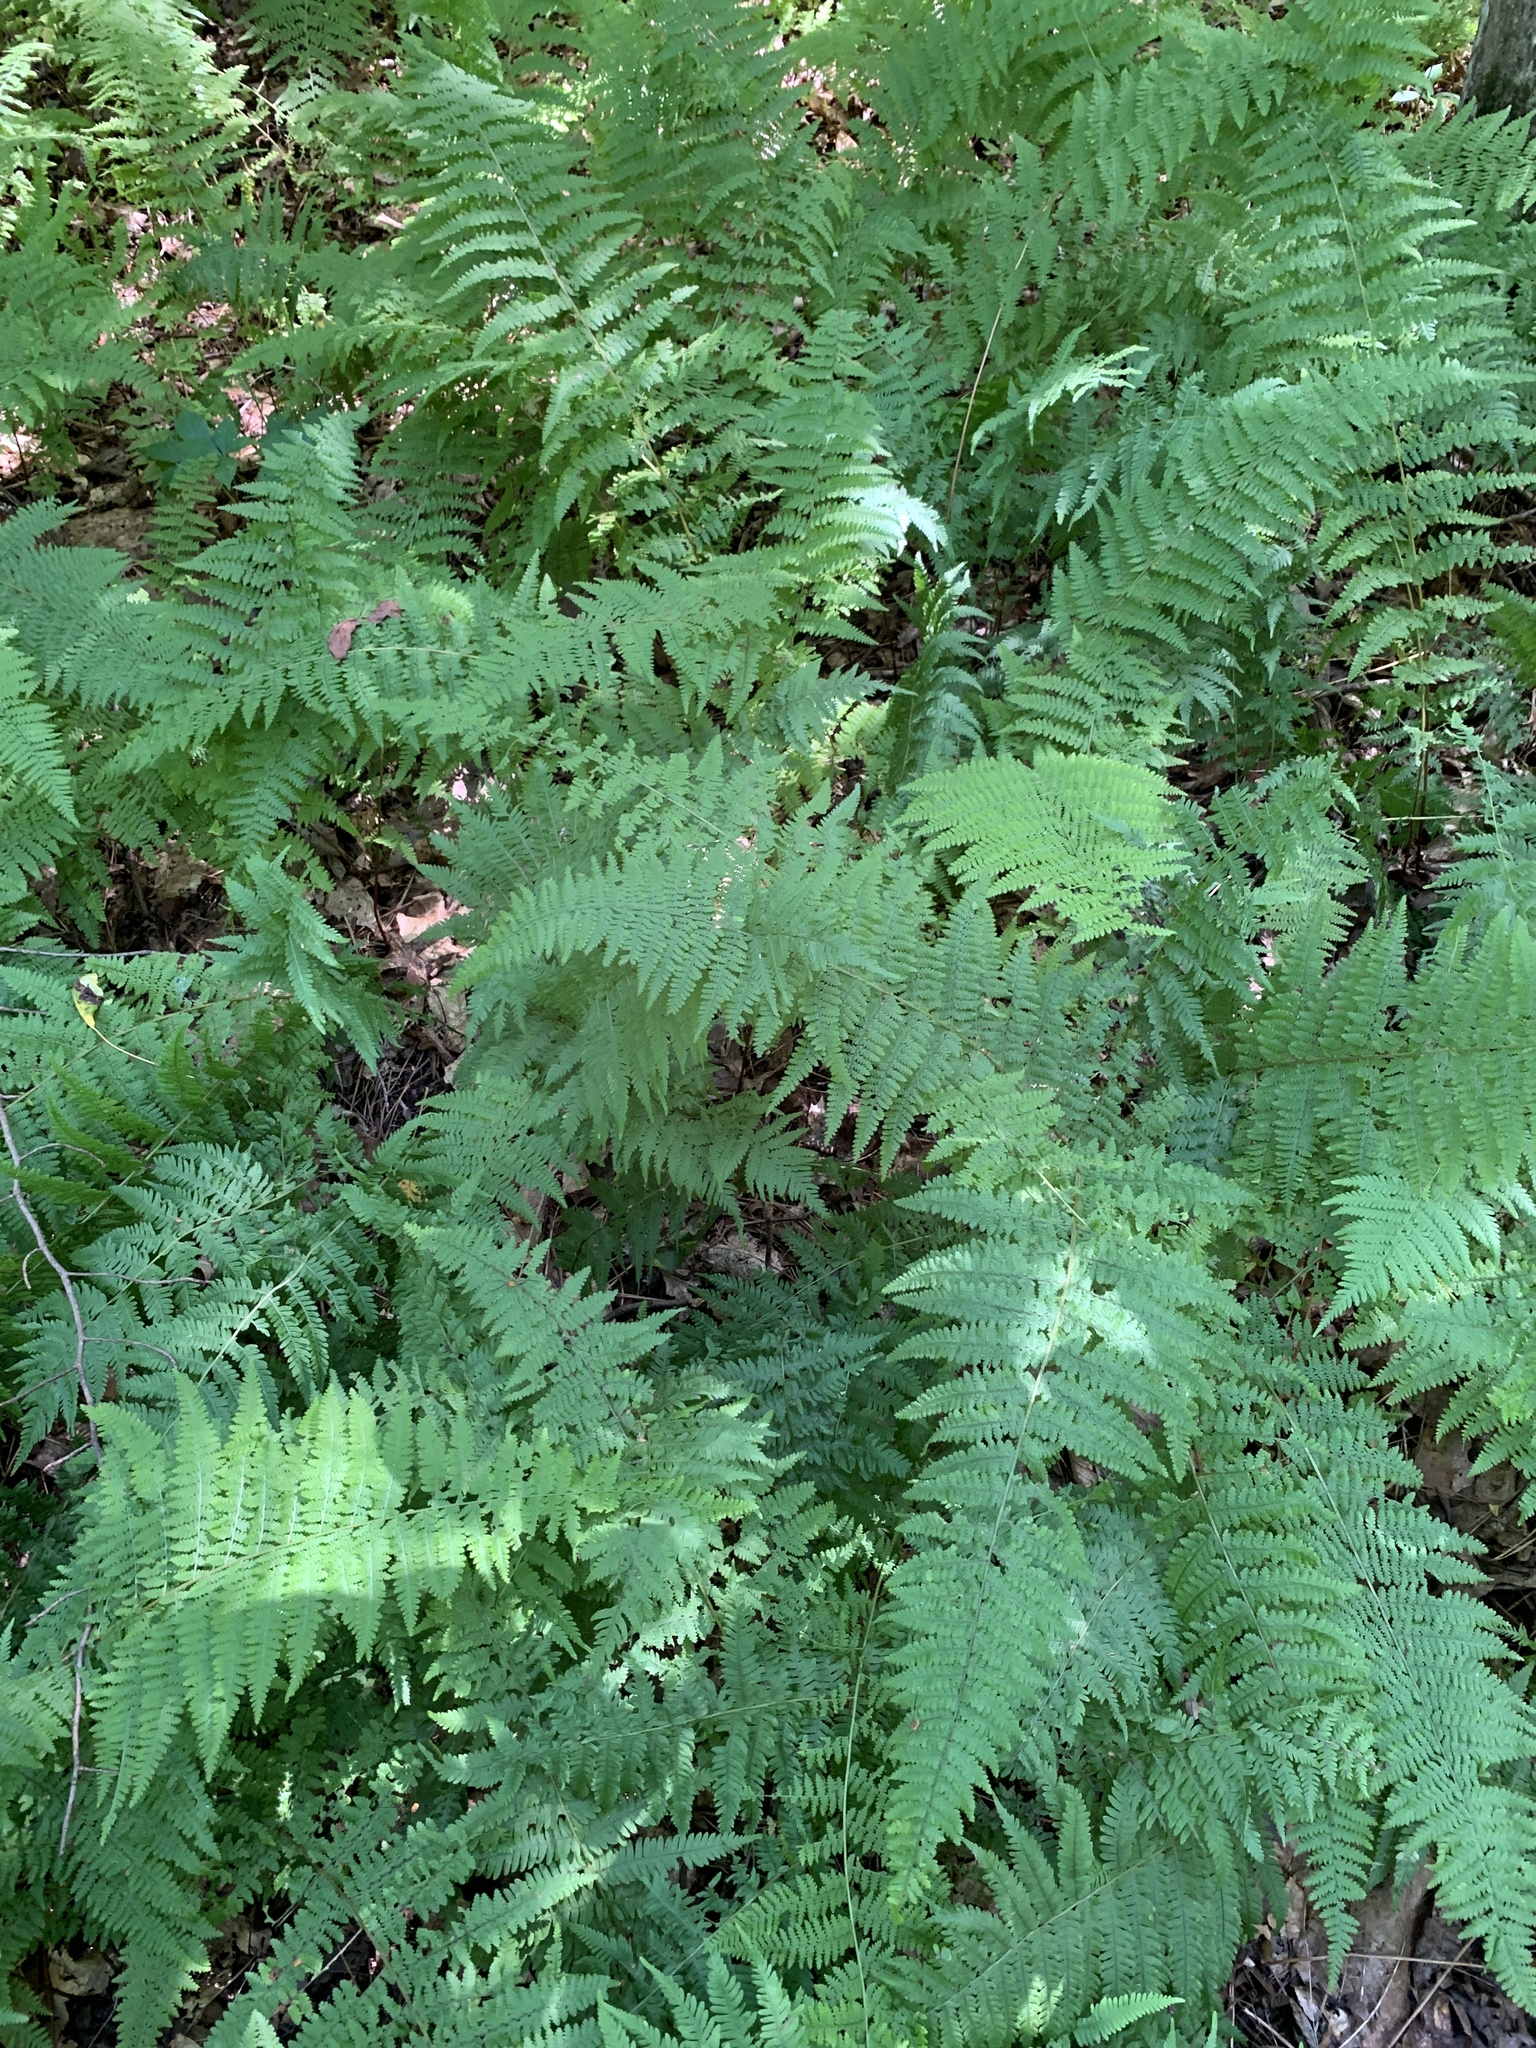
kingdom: Plantae
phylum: Tracheophyta
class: Polypodiopsida
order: Polypodiales
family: Dennstaedtiaceae
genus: Sitobolium
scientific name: Sitobolium punctilobum
